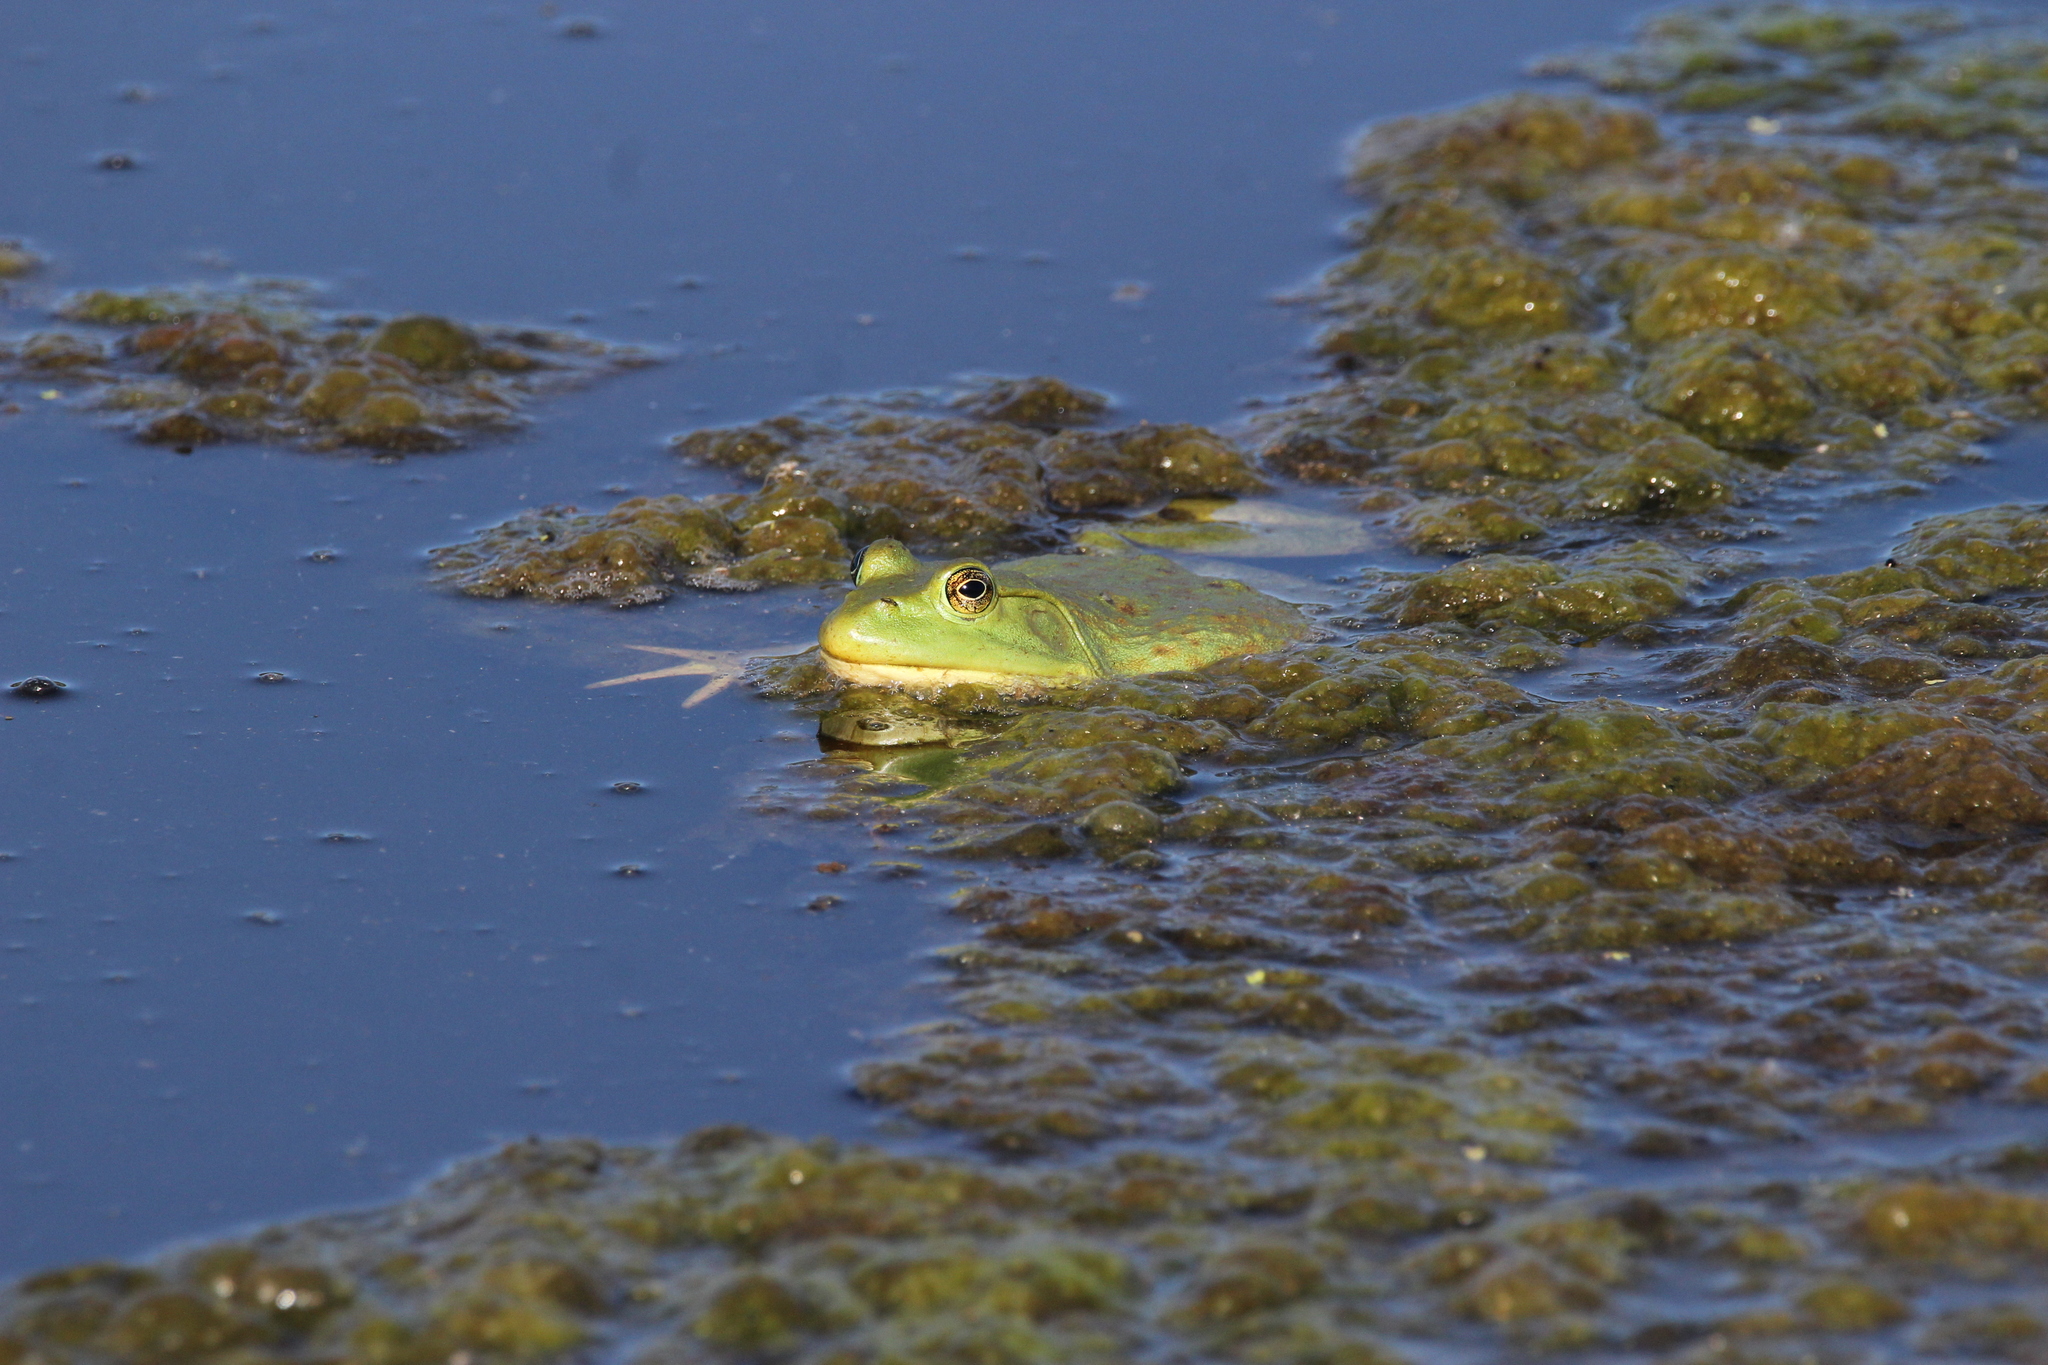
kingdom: Animalia
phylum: Chordata
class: Amphibia
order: Anura
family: Ranidae
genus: Lithobates
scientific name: Lithobates catesbeianus
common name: American bullfrog
